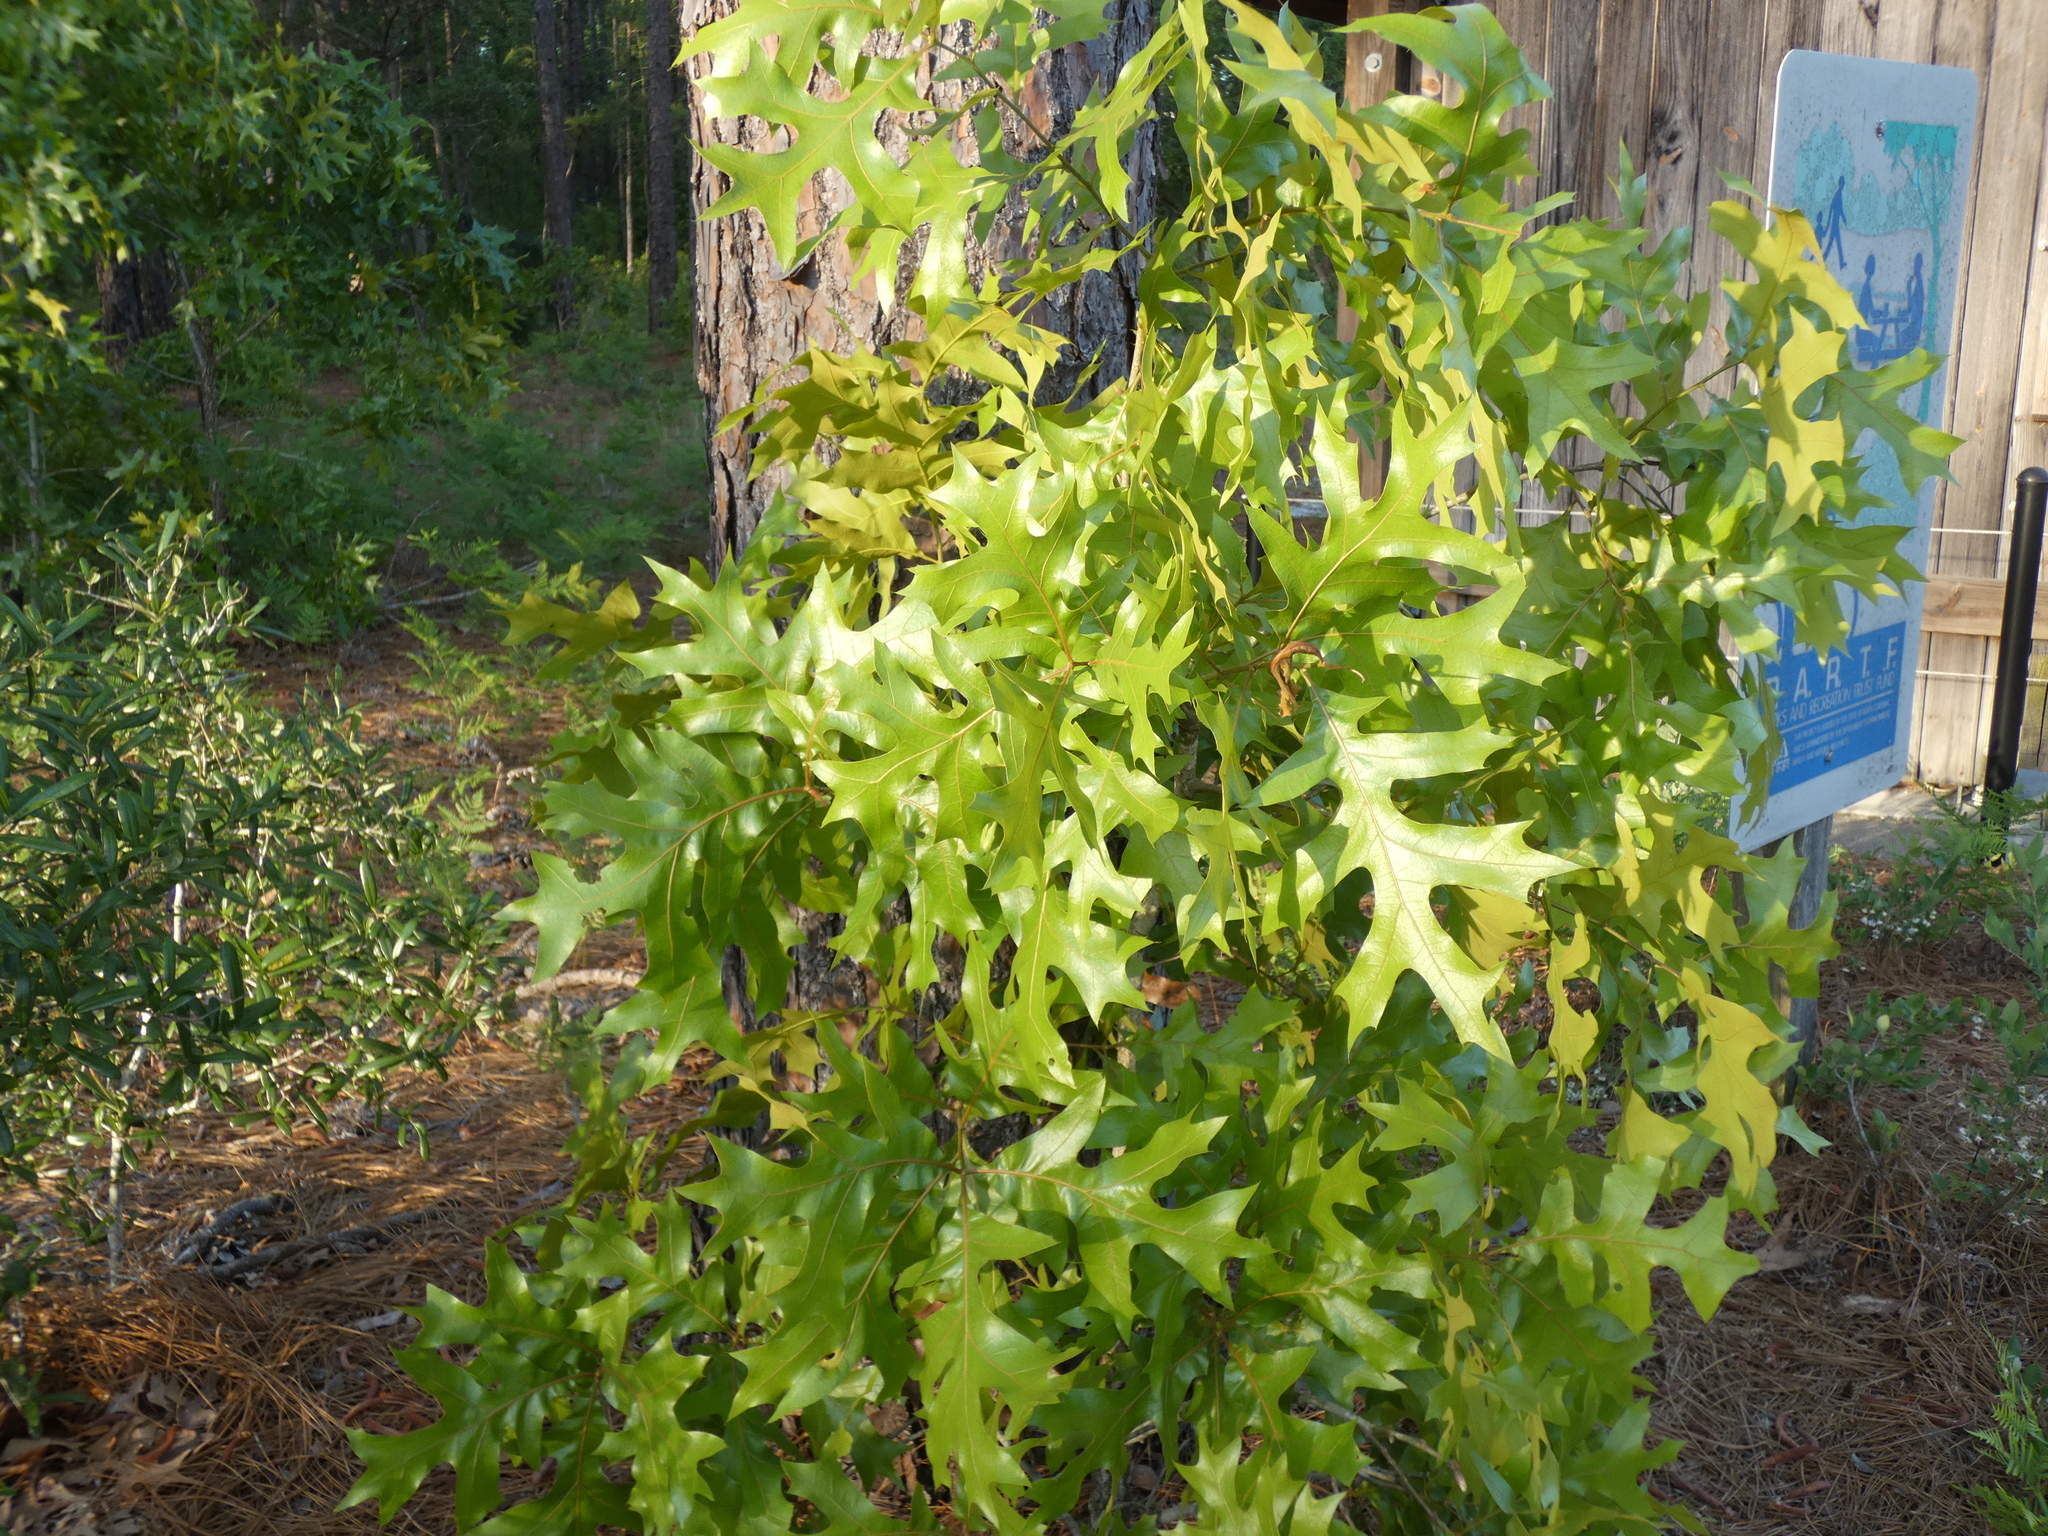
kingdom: Plantae
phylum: Tracheophyta
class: Magnoliopsida
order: Fagales
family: Fagaceae
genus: Quercus
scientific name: Quercus laevis
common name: Turkey oak
